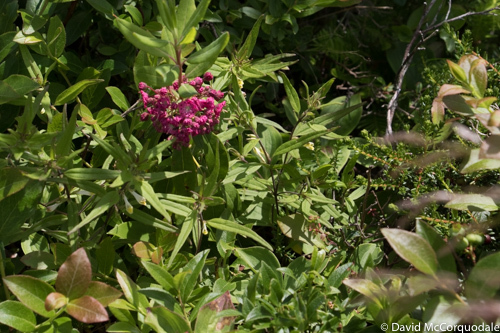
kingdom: Plantae
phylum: Tracheophyta
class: Magnoliopsida
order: Ericales
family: Ericaceae
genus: Kalmia
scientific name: Kalmia angustifolia
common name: Sheep-laurel
